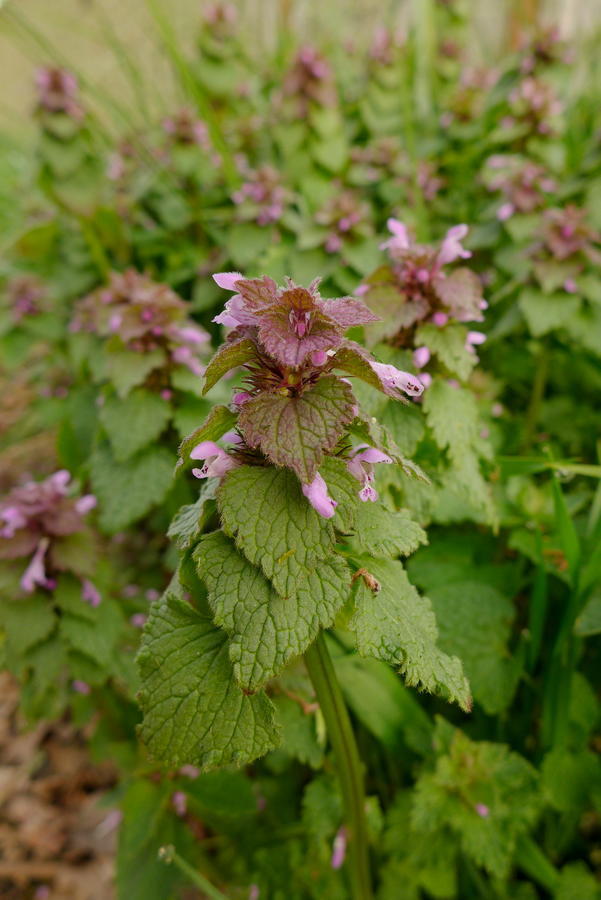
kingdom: Plantae
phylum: Tracheophyta
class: Magnoliopsida
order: Lamiales
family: Lamiaceae
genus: Lamium
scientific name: Lamium purpureum
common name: Red dead-nettle
